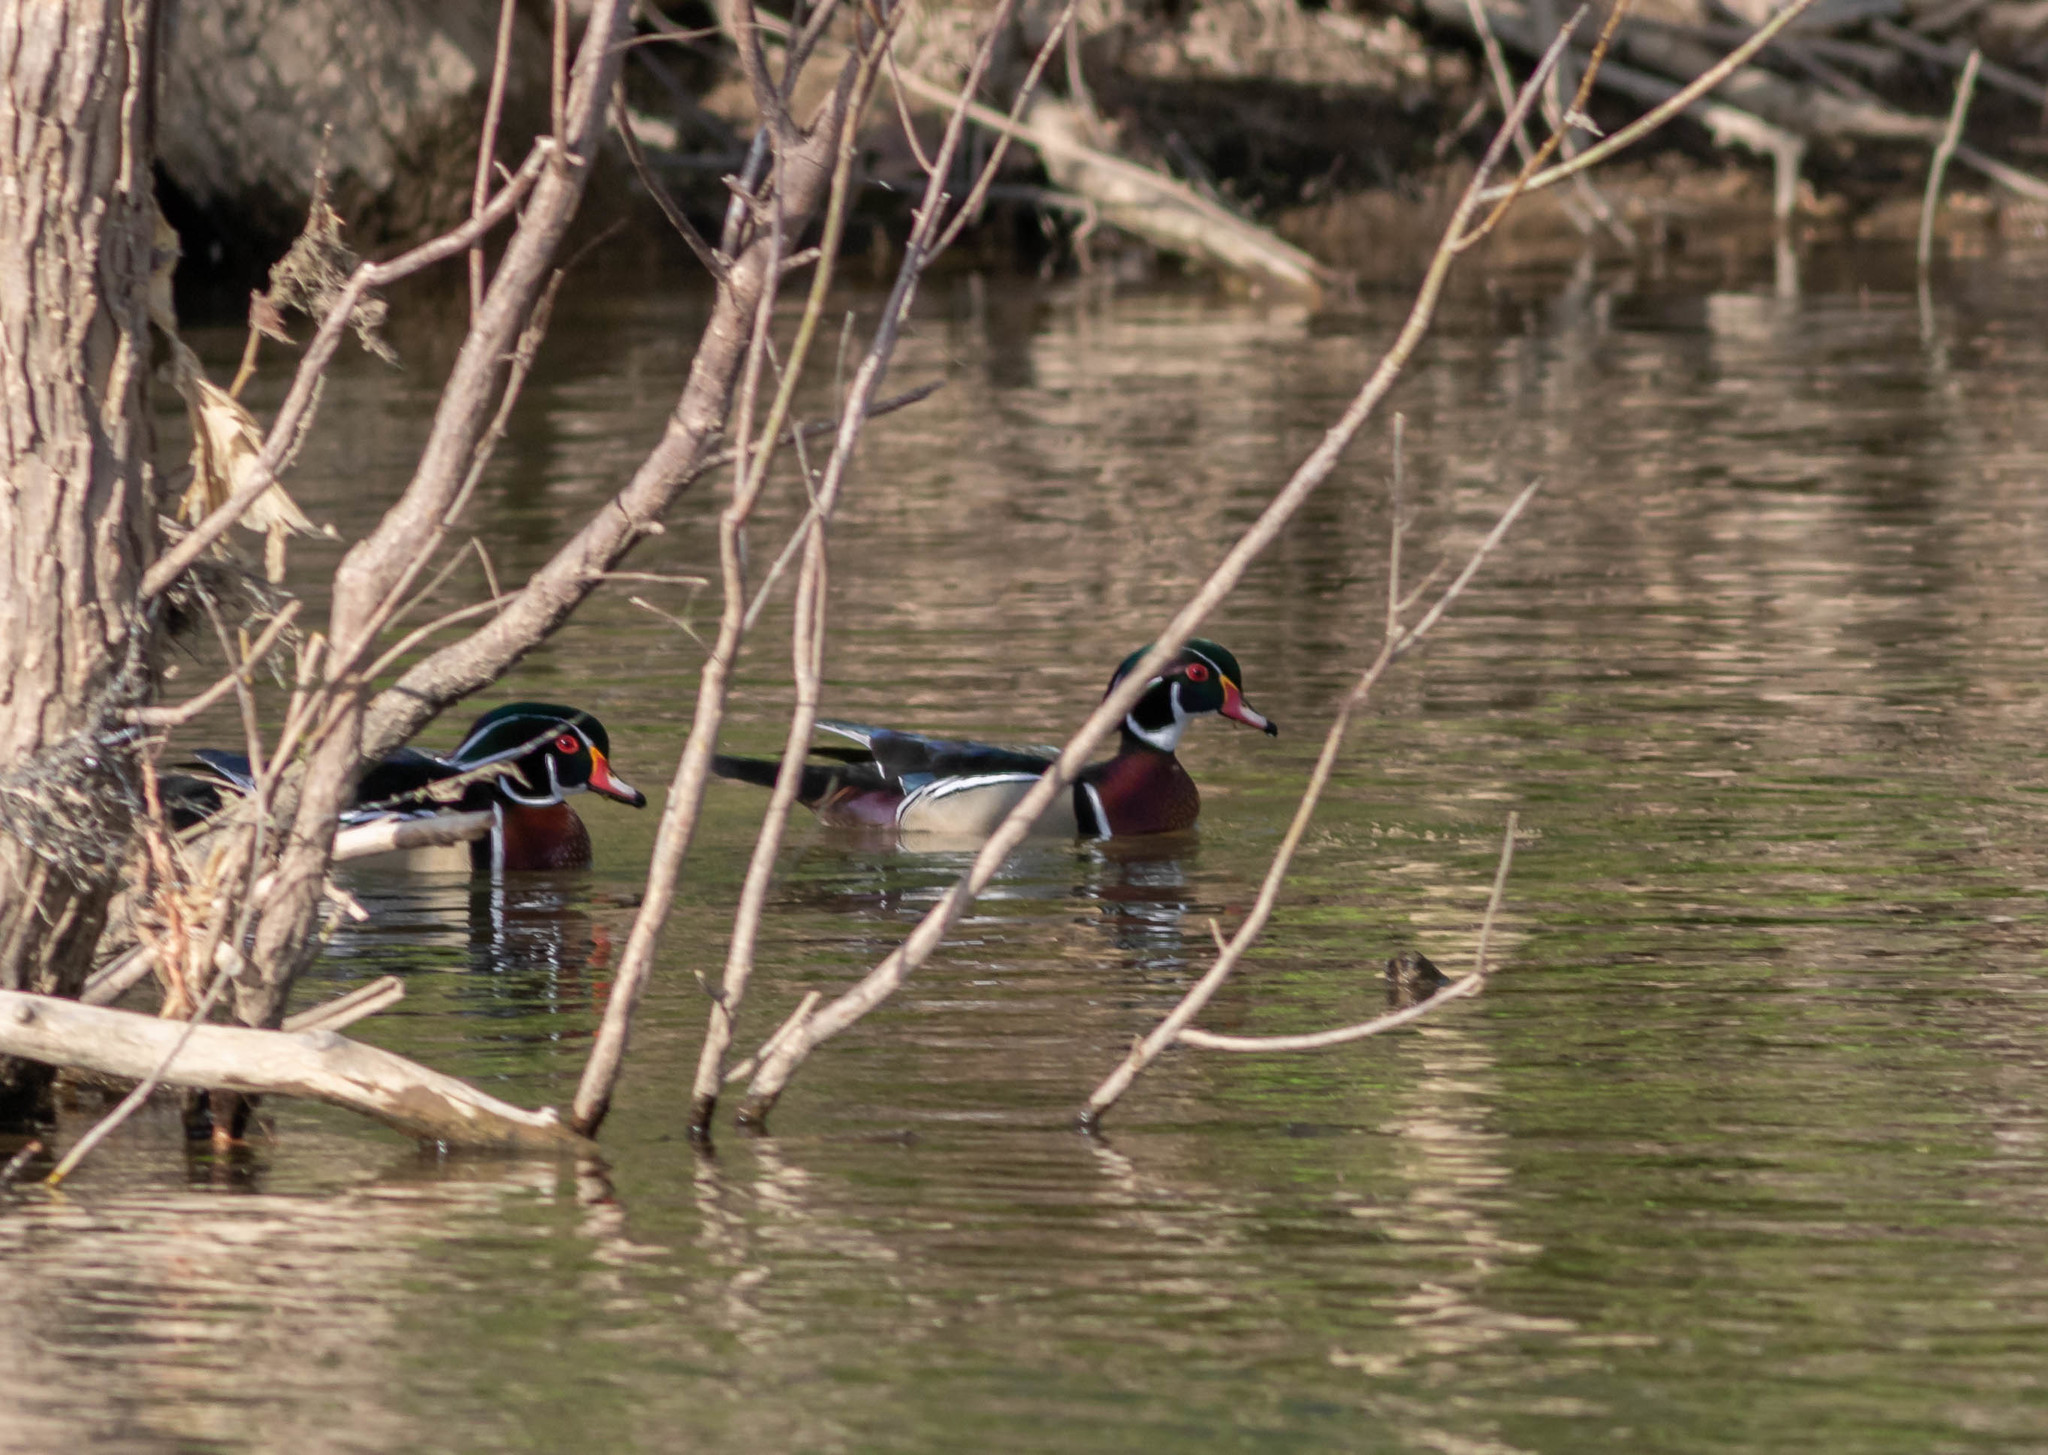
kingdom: Animalia
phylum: Chordata
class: Aves
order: Anseriformes
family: Anatidae
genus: Aix
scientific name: Aix sponsa
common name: Wood duck
